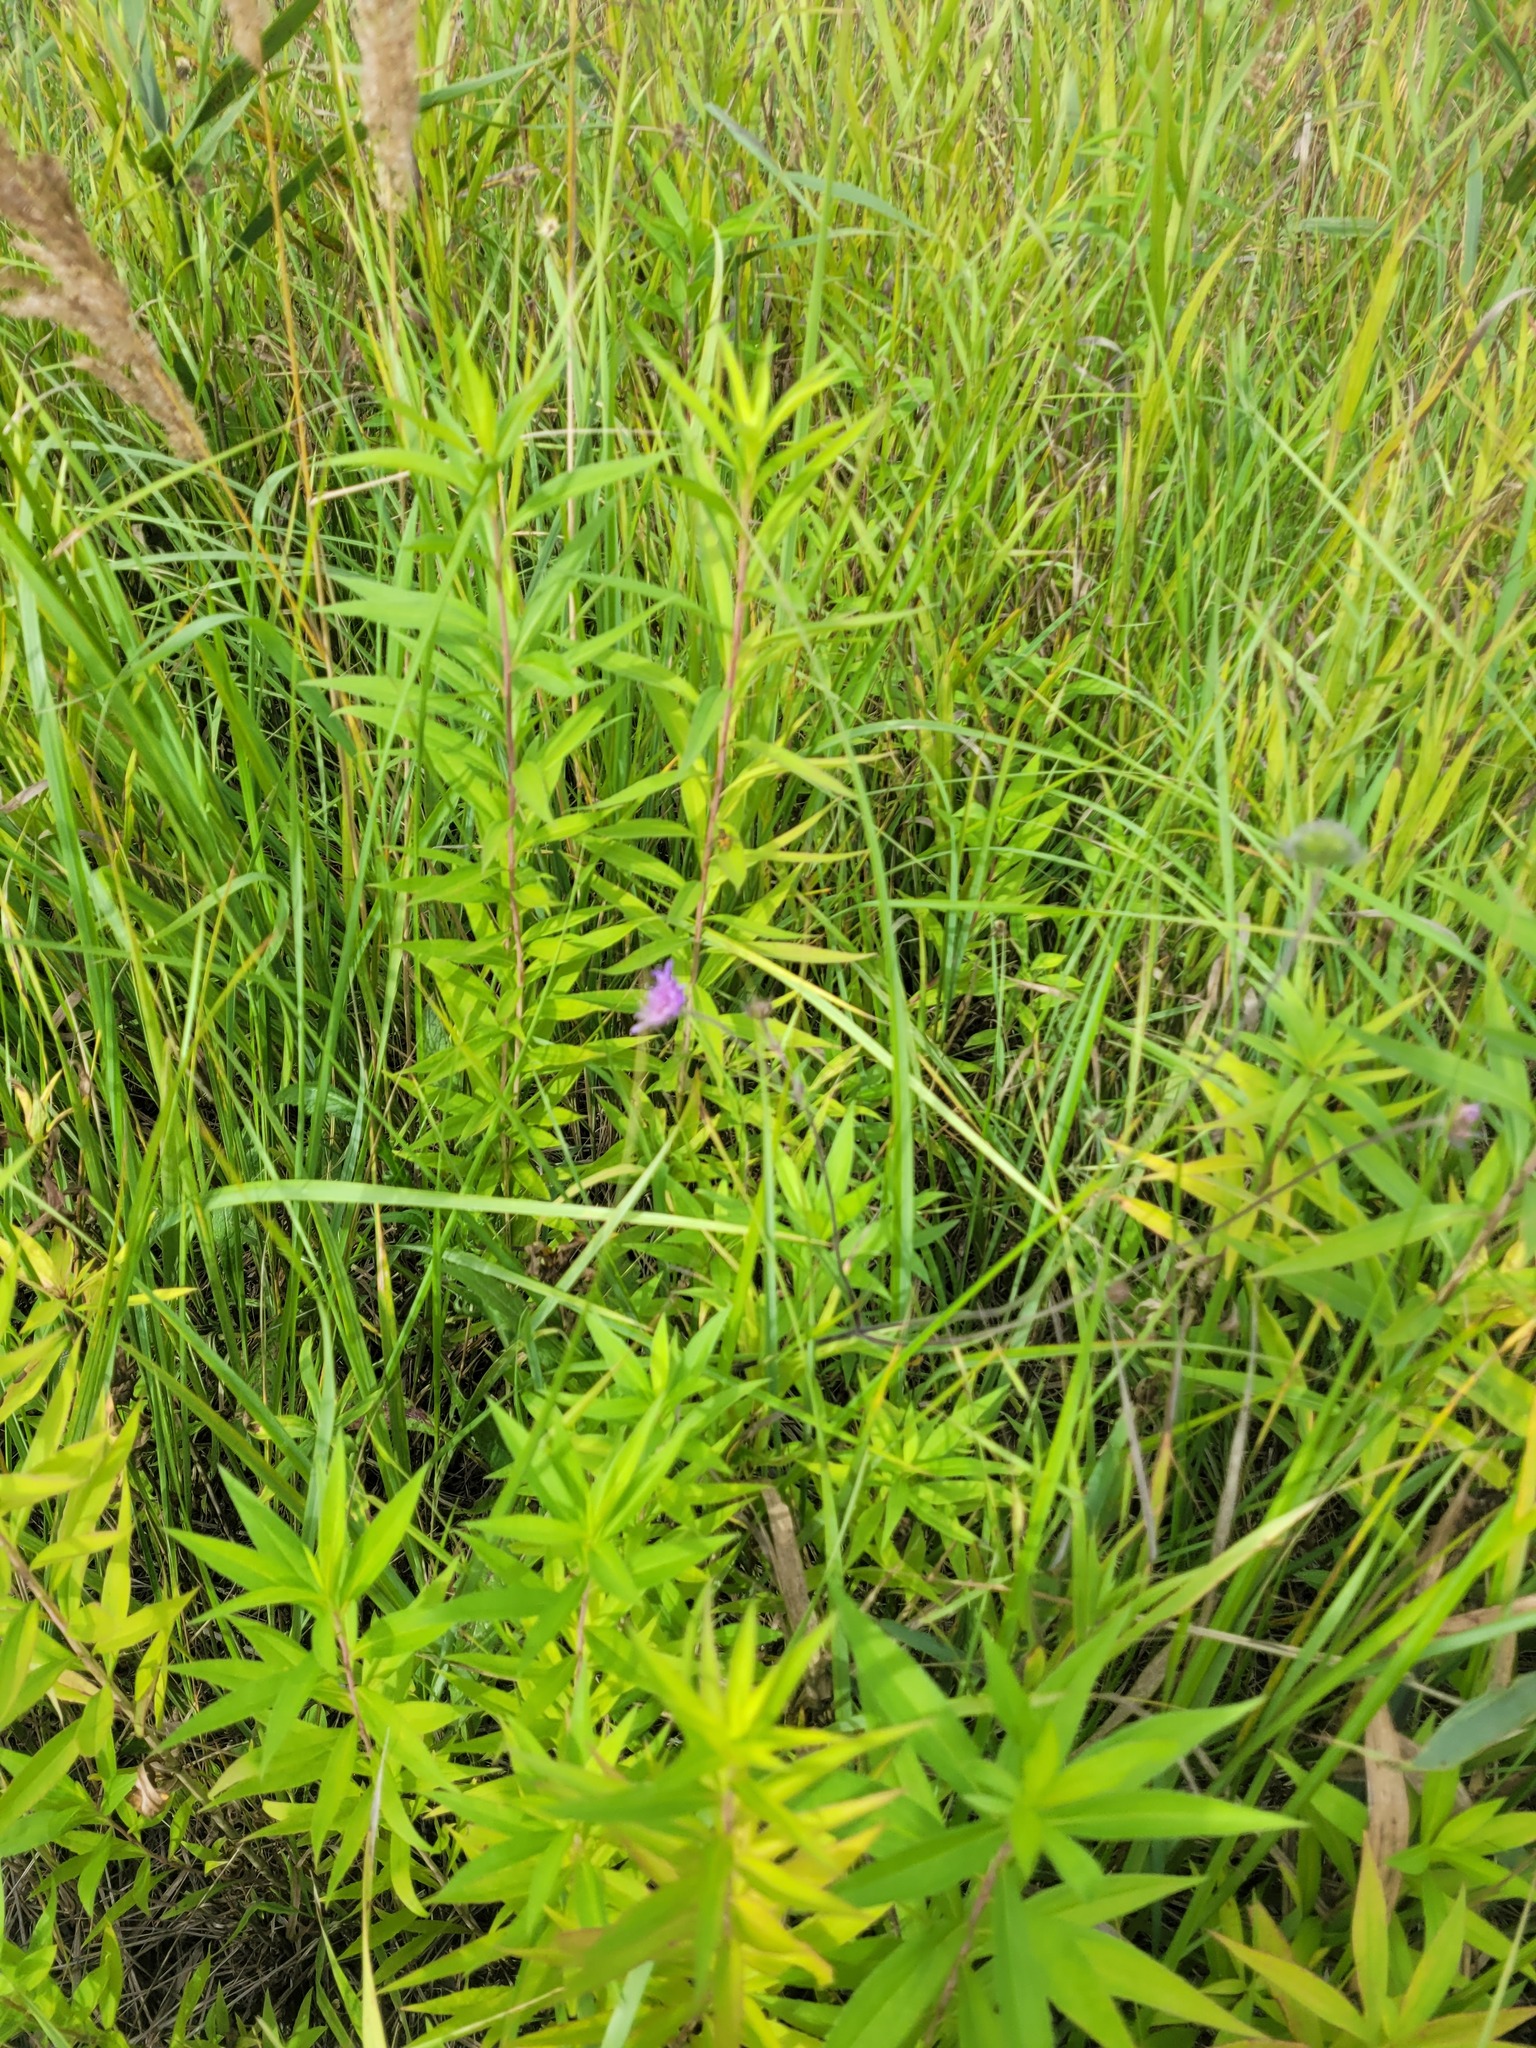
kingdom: Plantae
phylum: Tracheophyta
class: Magnoliopsida
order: Dipsacales
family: Caprifoliaceae
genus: Knautia
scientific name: Knautia arvensis
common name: Field scabiosa
